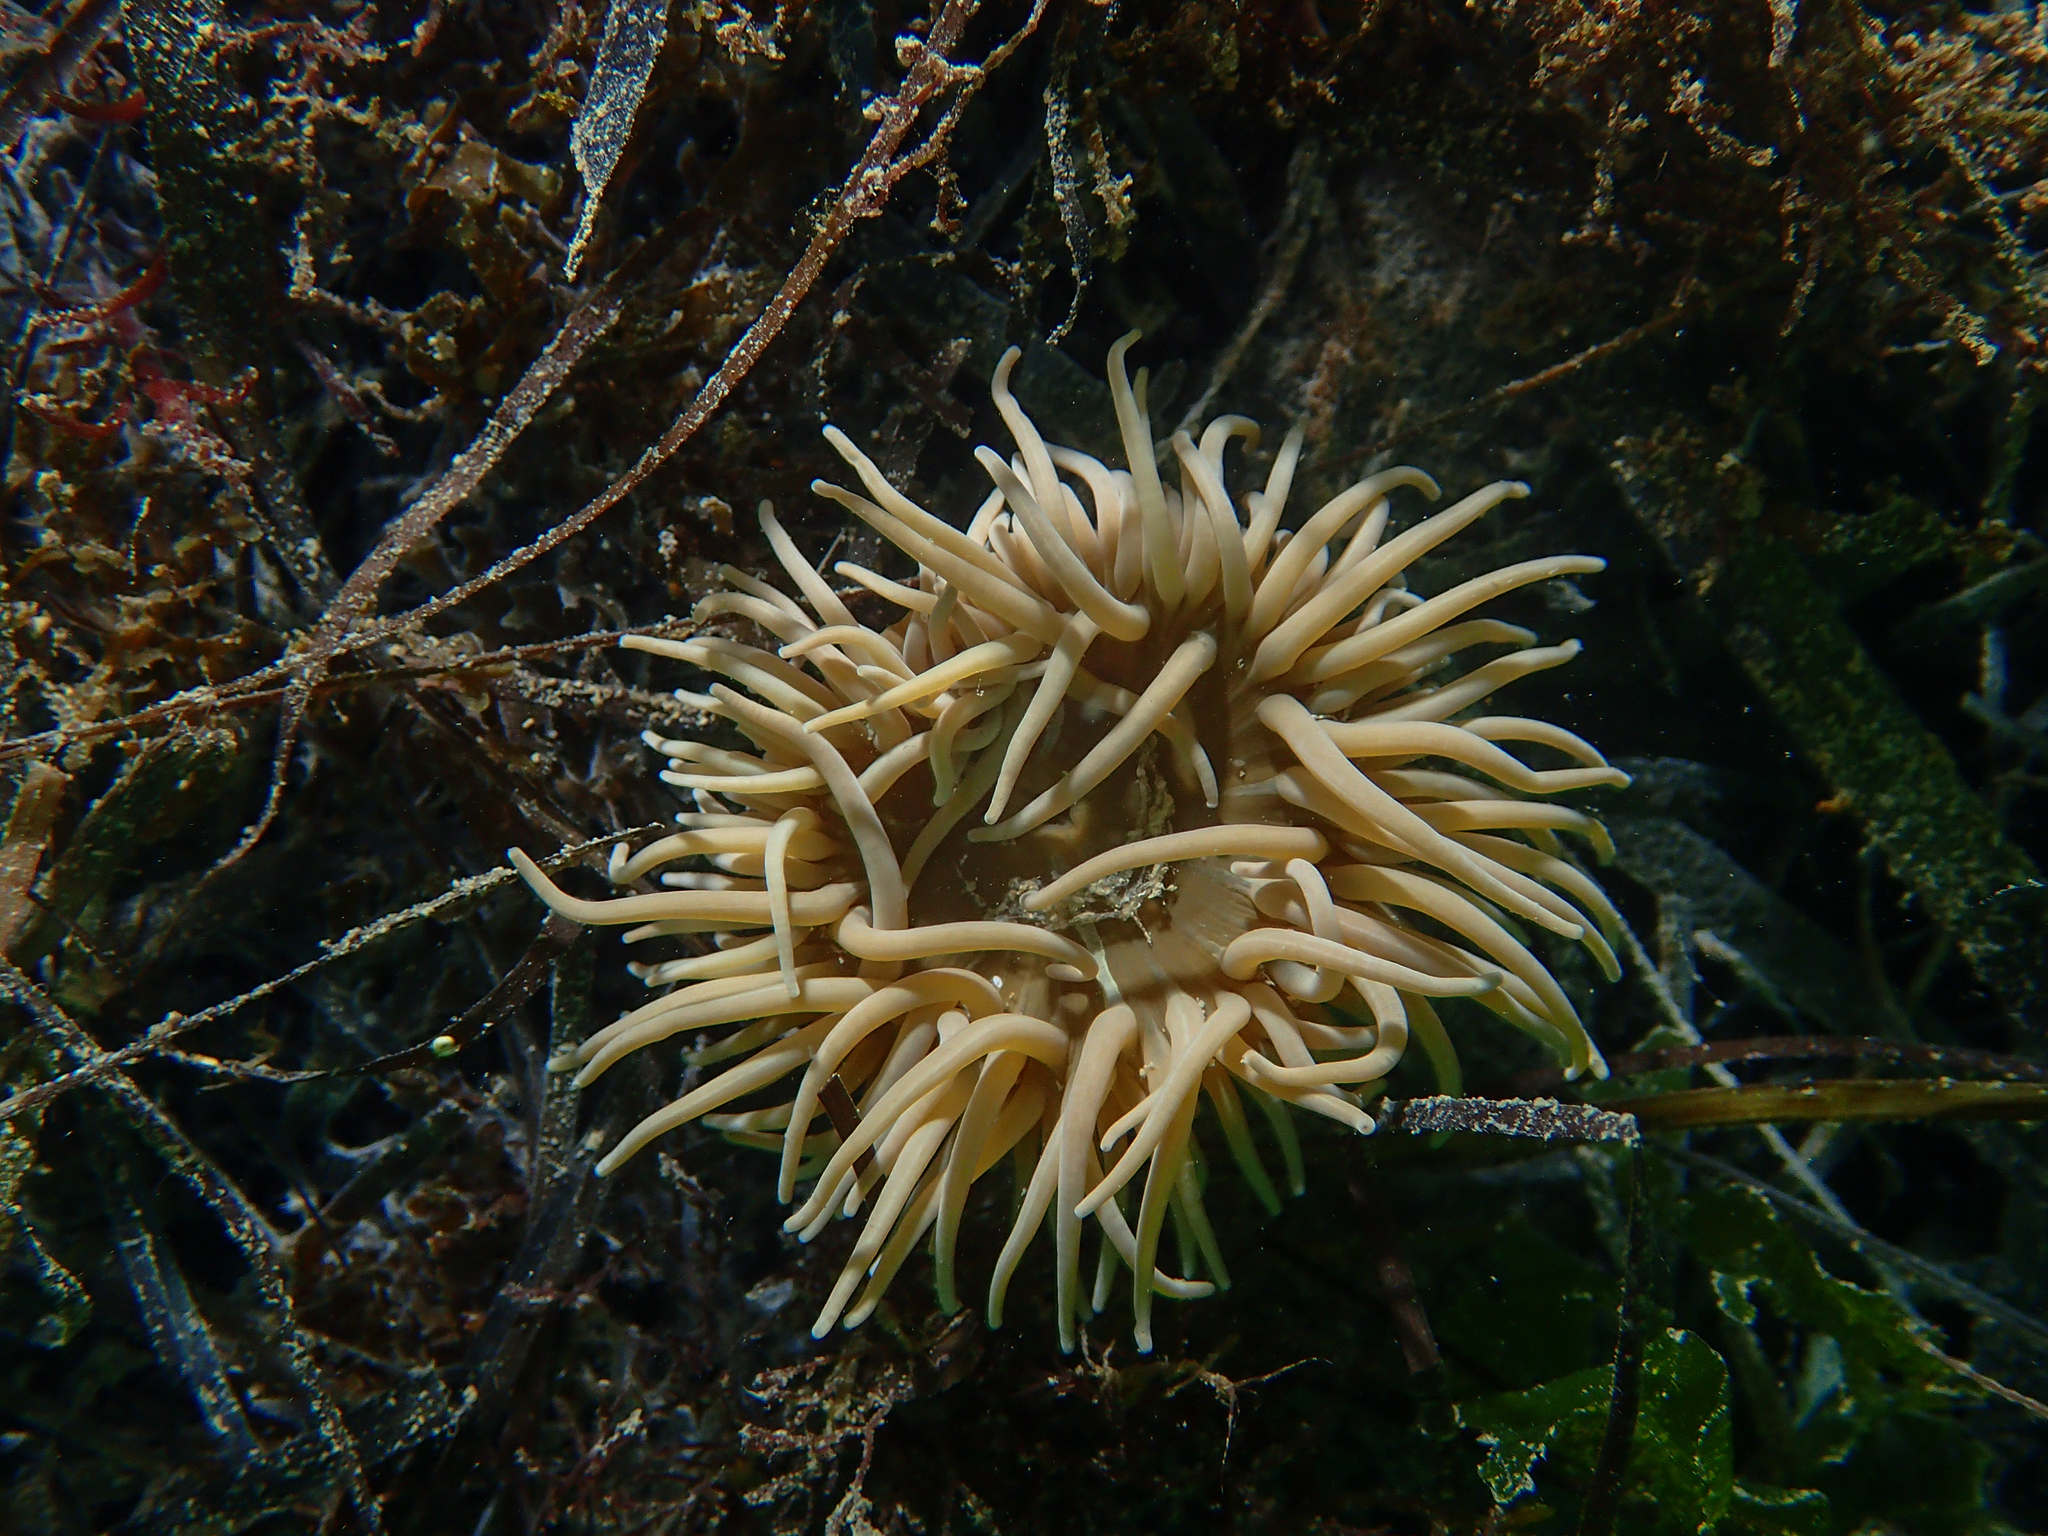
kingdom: Animalia
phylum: Cnidaria
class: Anthozoa
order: Actiniaria
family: Actiniidae
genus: Anemonia
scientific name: Anemonia viridis
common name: Snakelocks anemone
